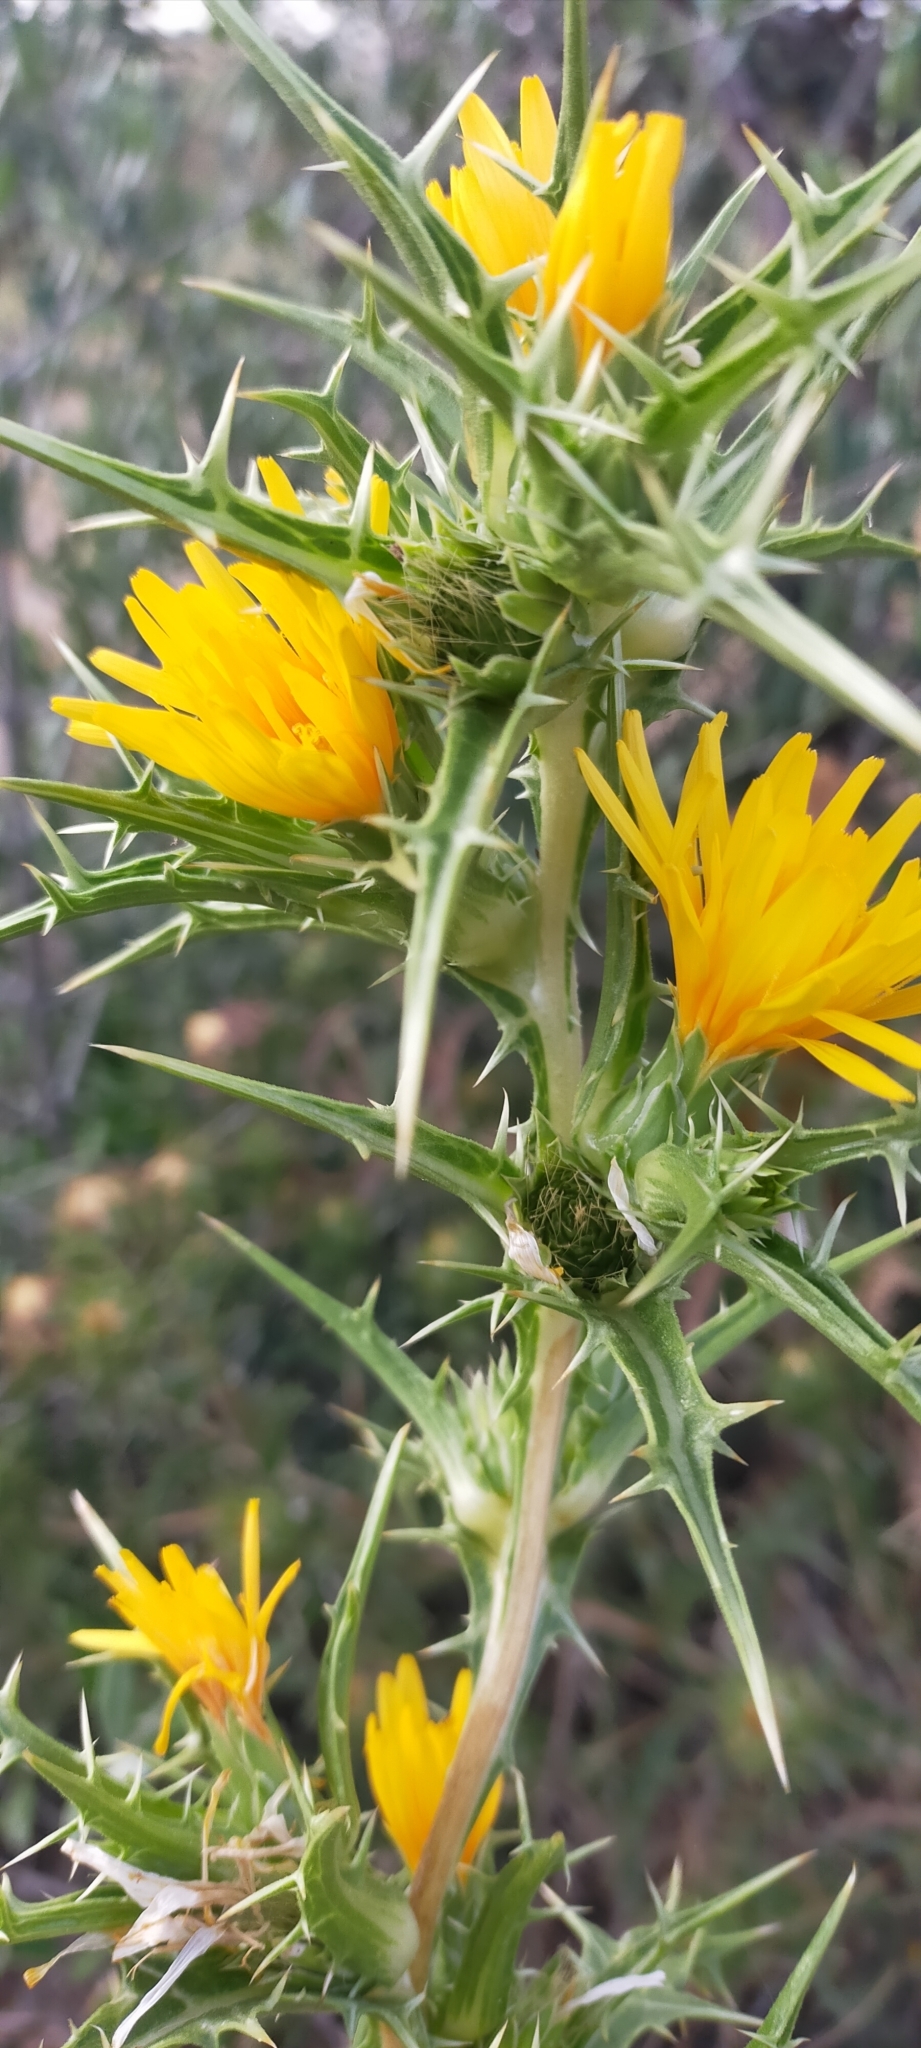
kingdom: Plantae
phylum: Tracheophyta
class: Magnoliopsida
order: Asterales
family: Asteraceae
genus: Scolymus
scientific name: Scolymus hispanicus
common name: Golden thistle
